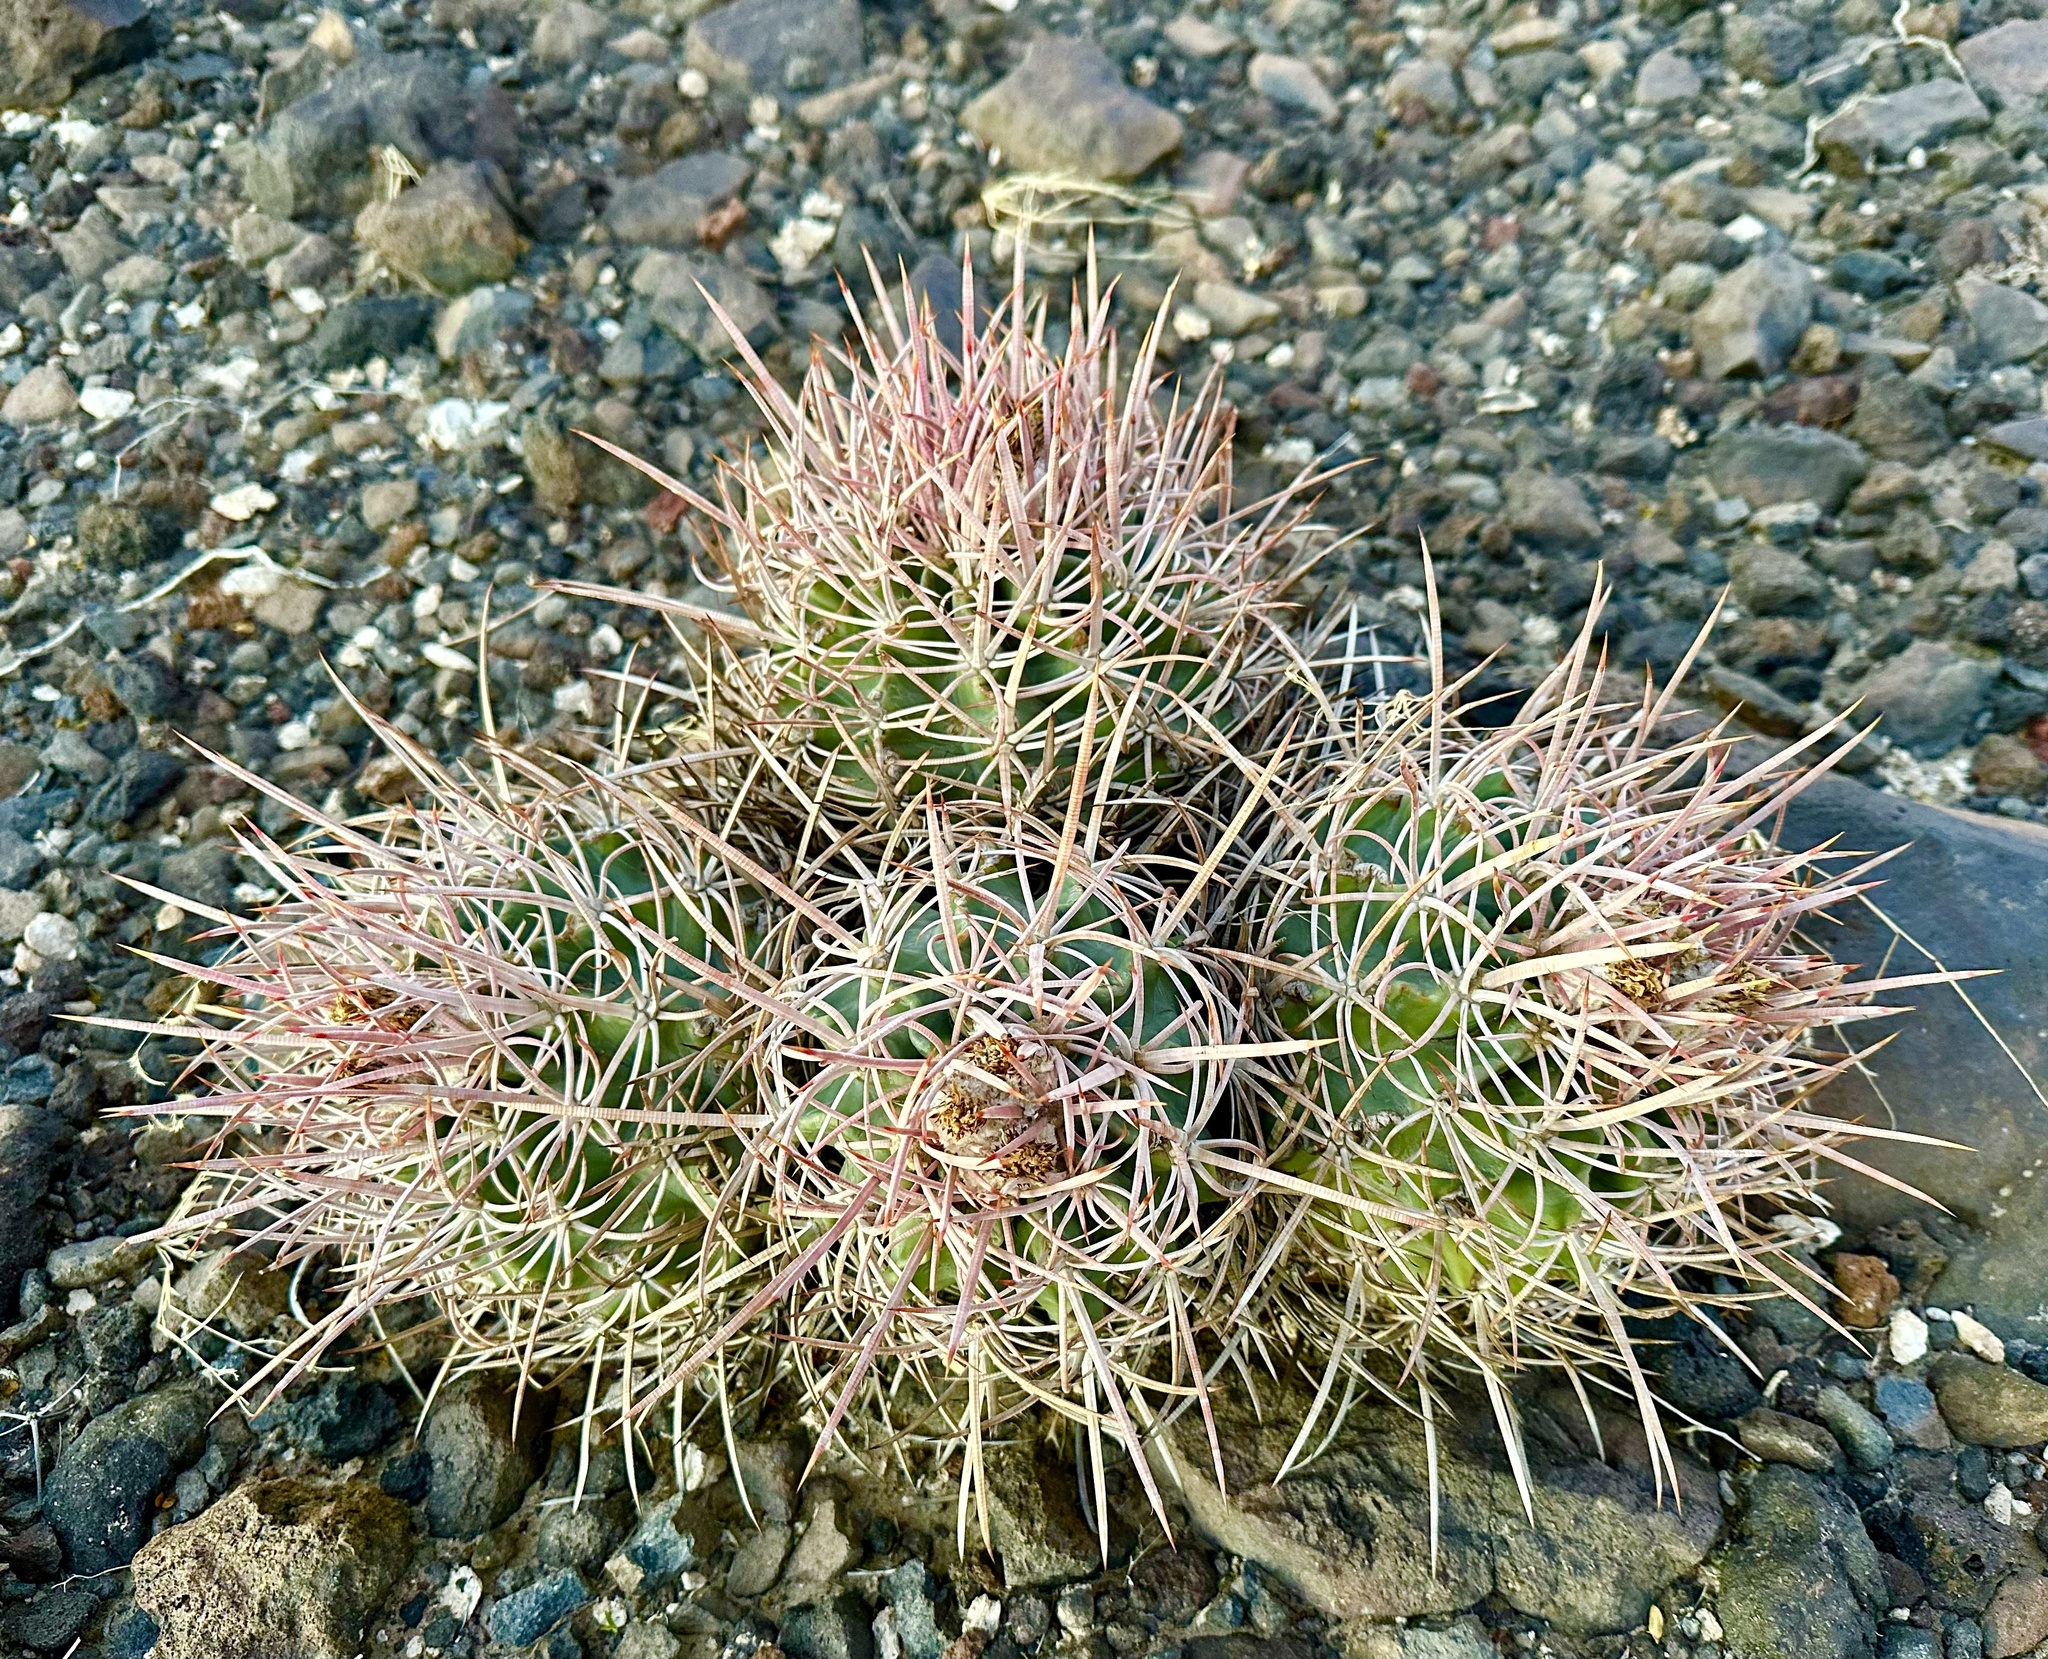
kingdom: Plantae
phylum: Tracheophyta
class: Magnoliopsida
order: Caryophyllales
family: Cactaceae
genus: Echinocactus
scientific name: Echinocactus polycephalus
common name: Cottontop cactus
